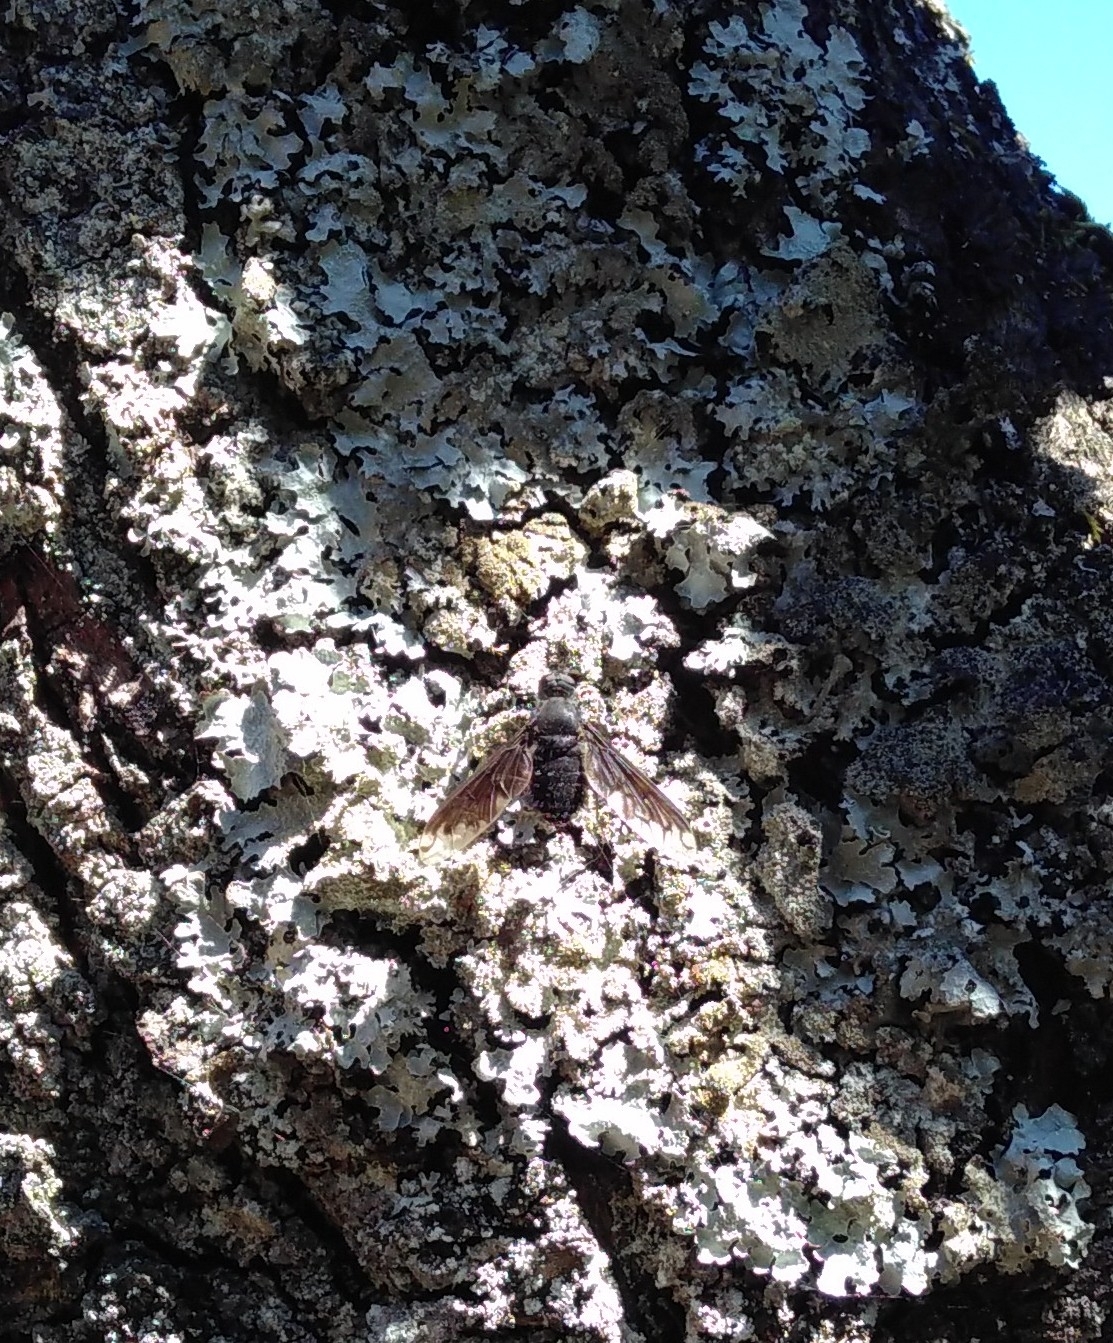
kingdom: Animalia
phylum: Arthropoda
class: Insecta
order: Diptera
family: Bombyliidae
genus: Anthrax
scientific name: Anthrax anthrax
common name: Anthracite bee-fly
